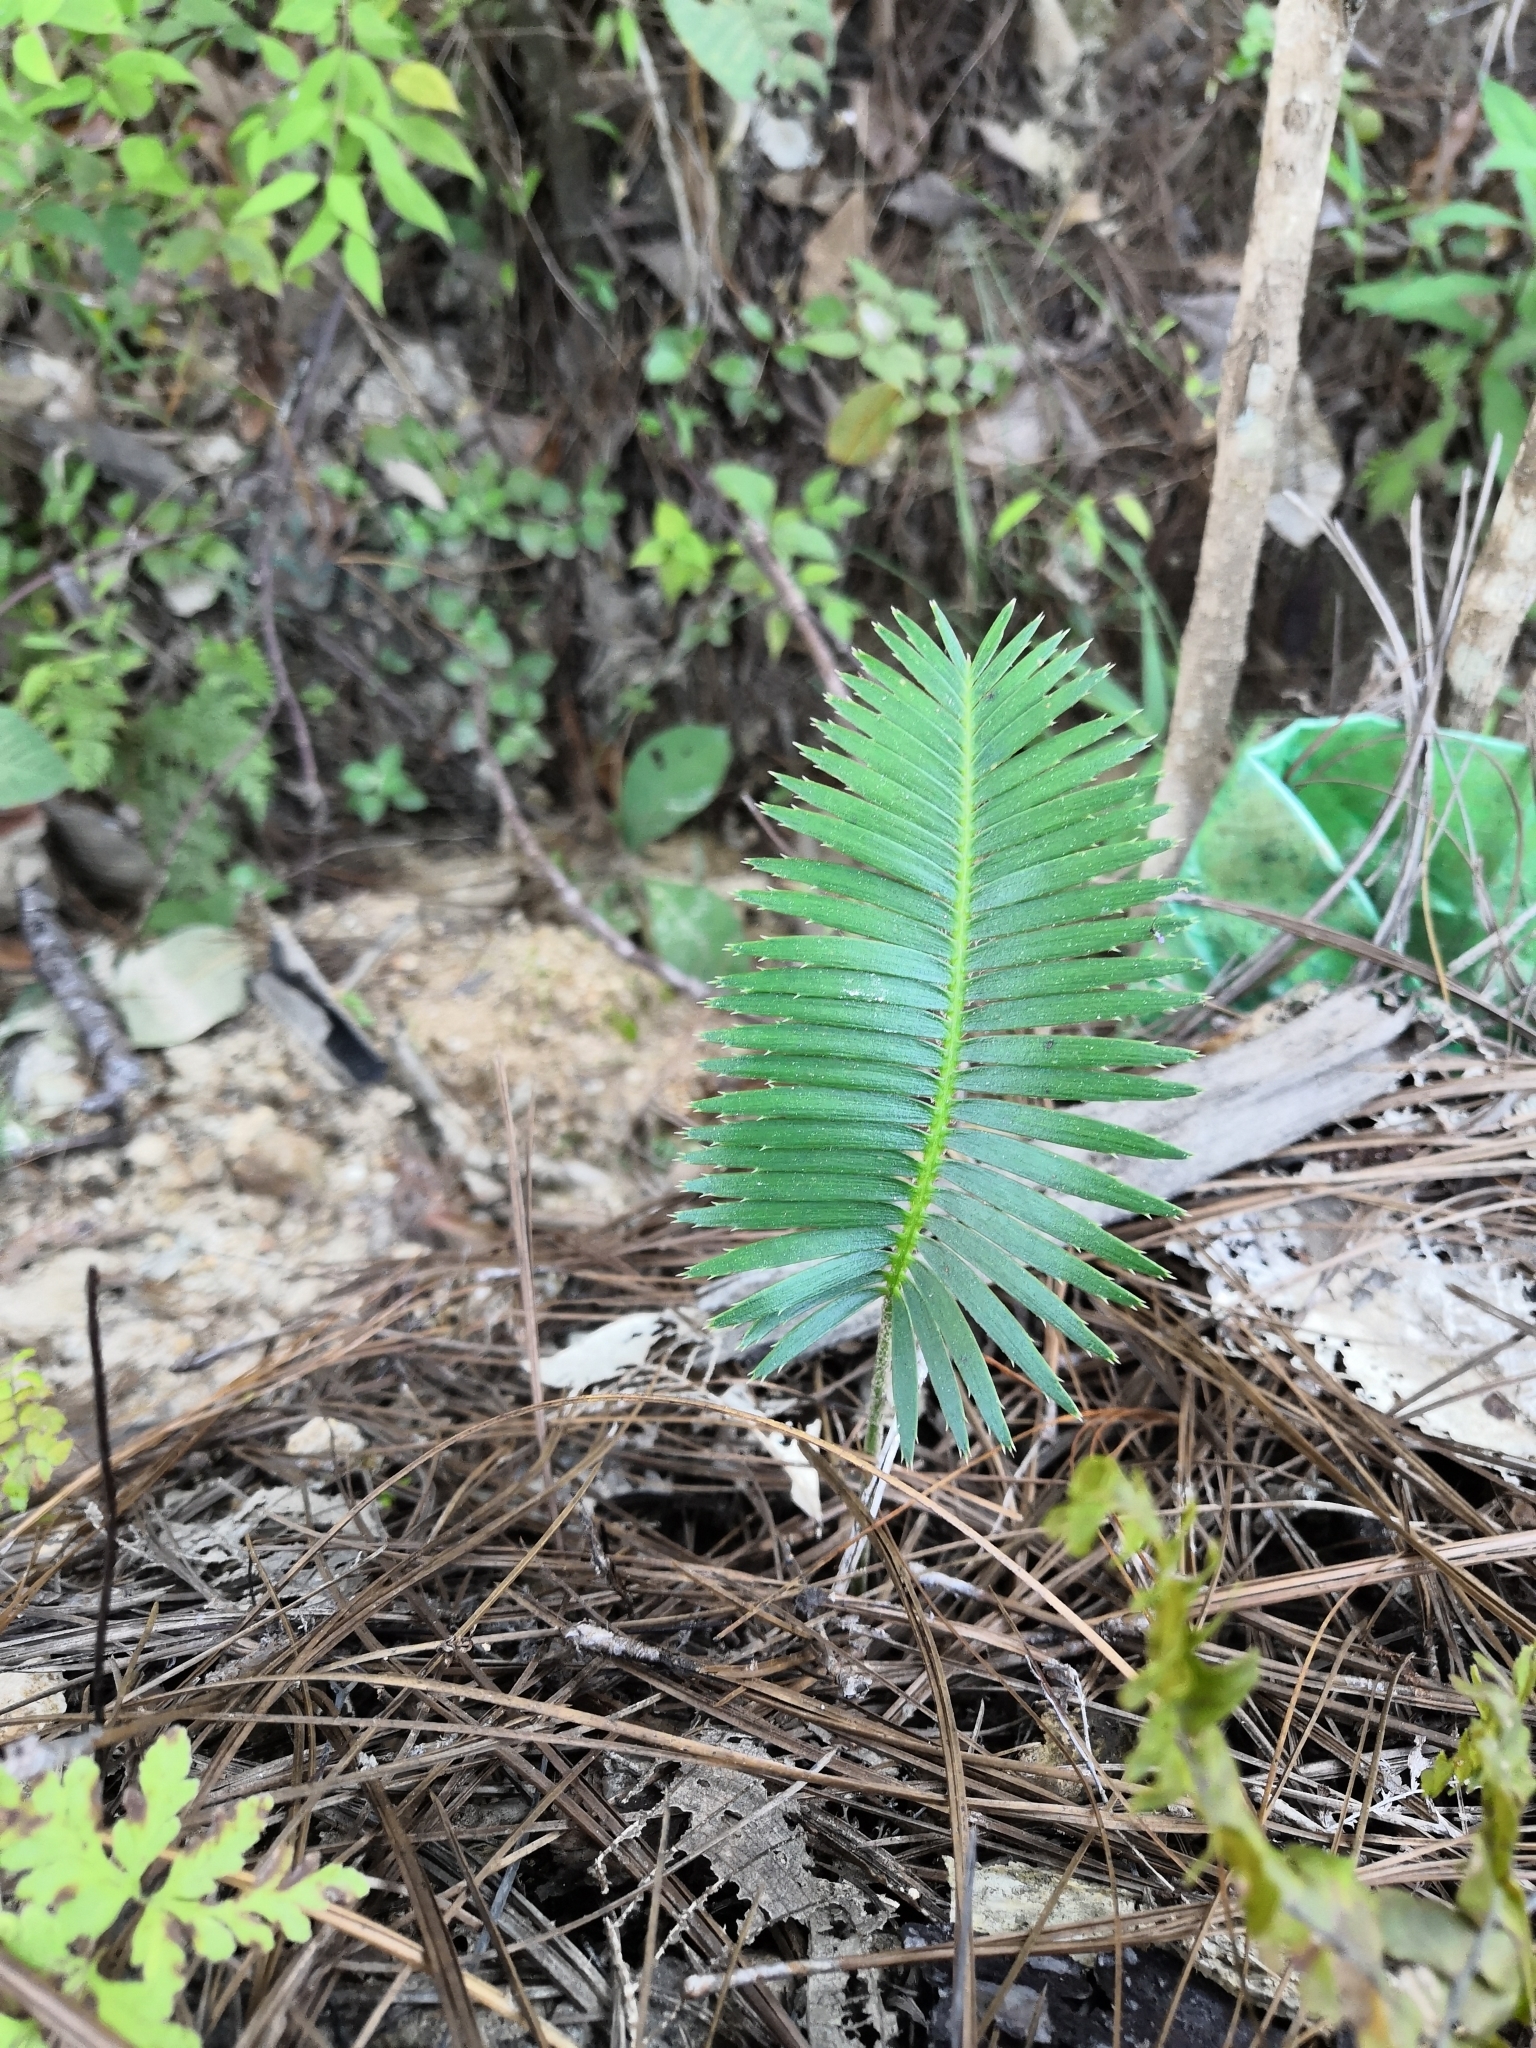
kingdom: Plantae
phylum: Tracheophyta
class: Cycadopsida
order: Cycadales
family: Zamiaceae
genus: Dioon
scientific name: Dioon tomasellii
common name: Palmita
